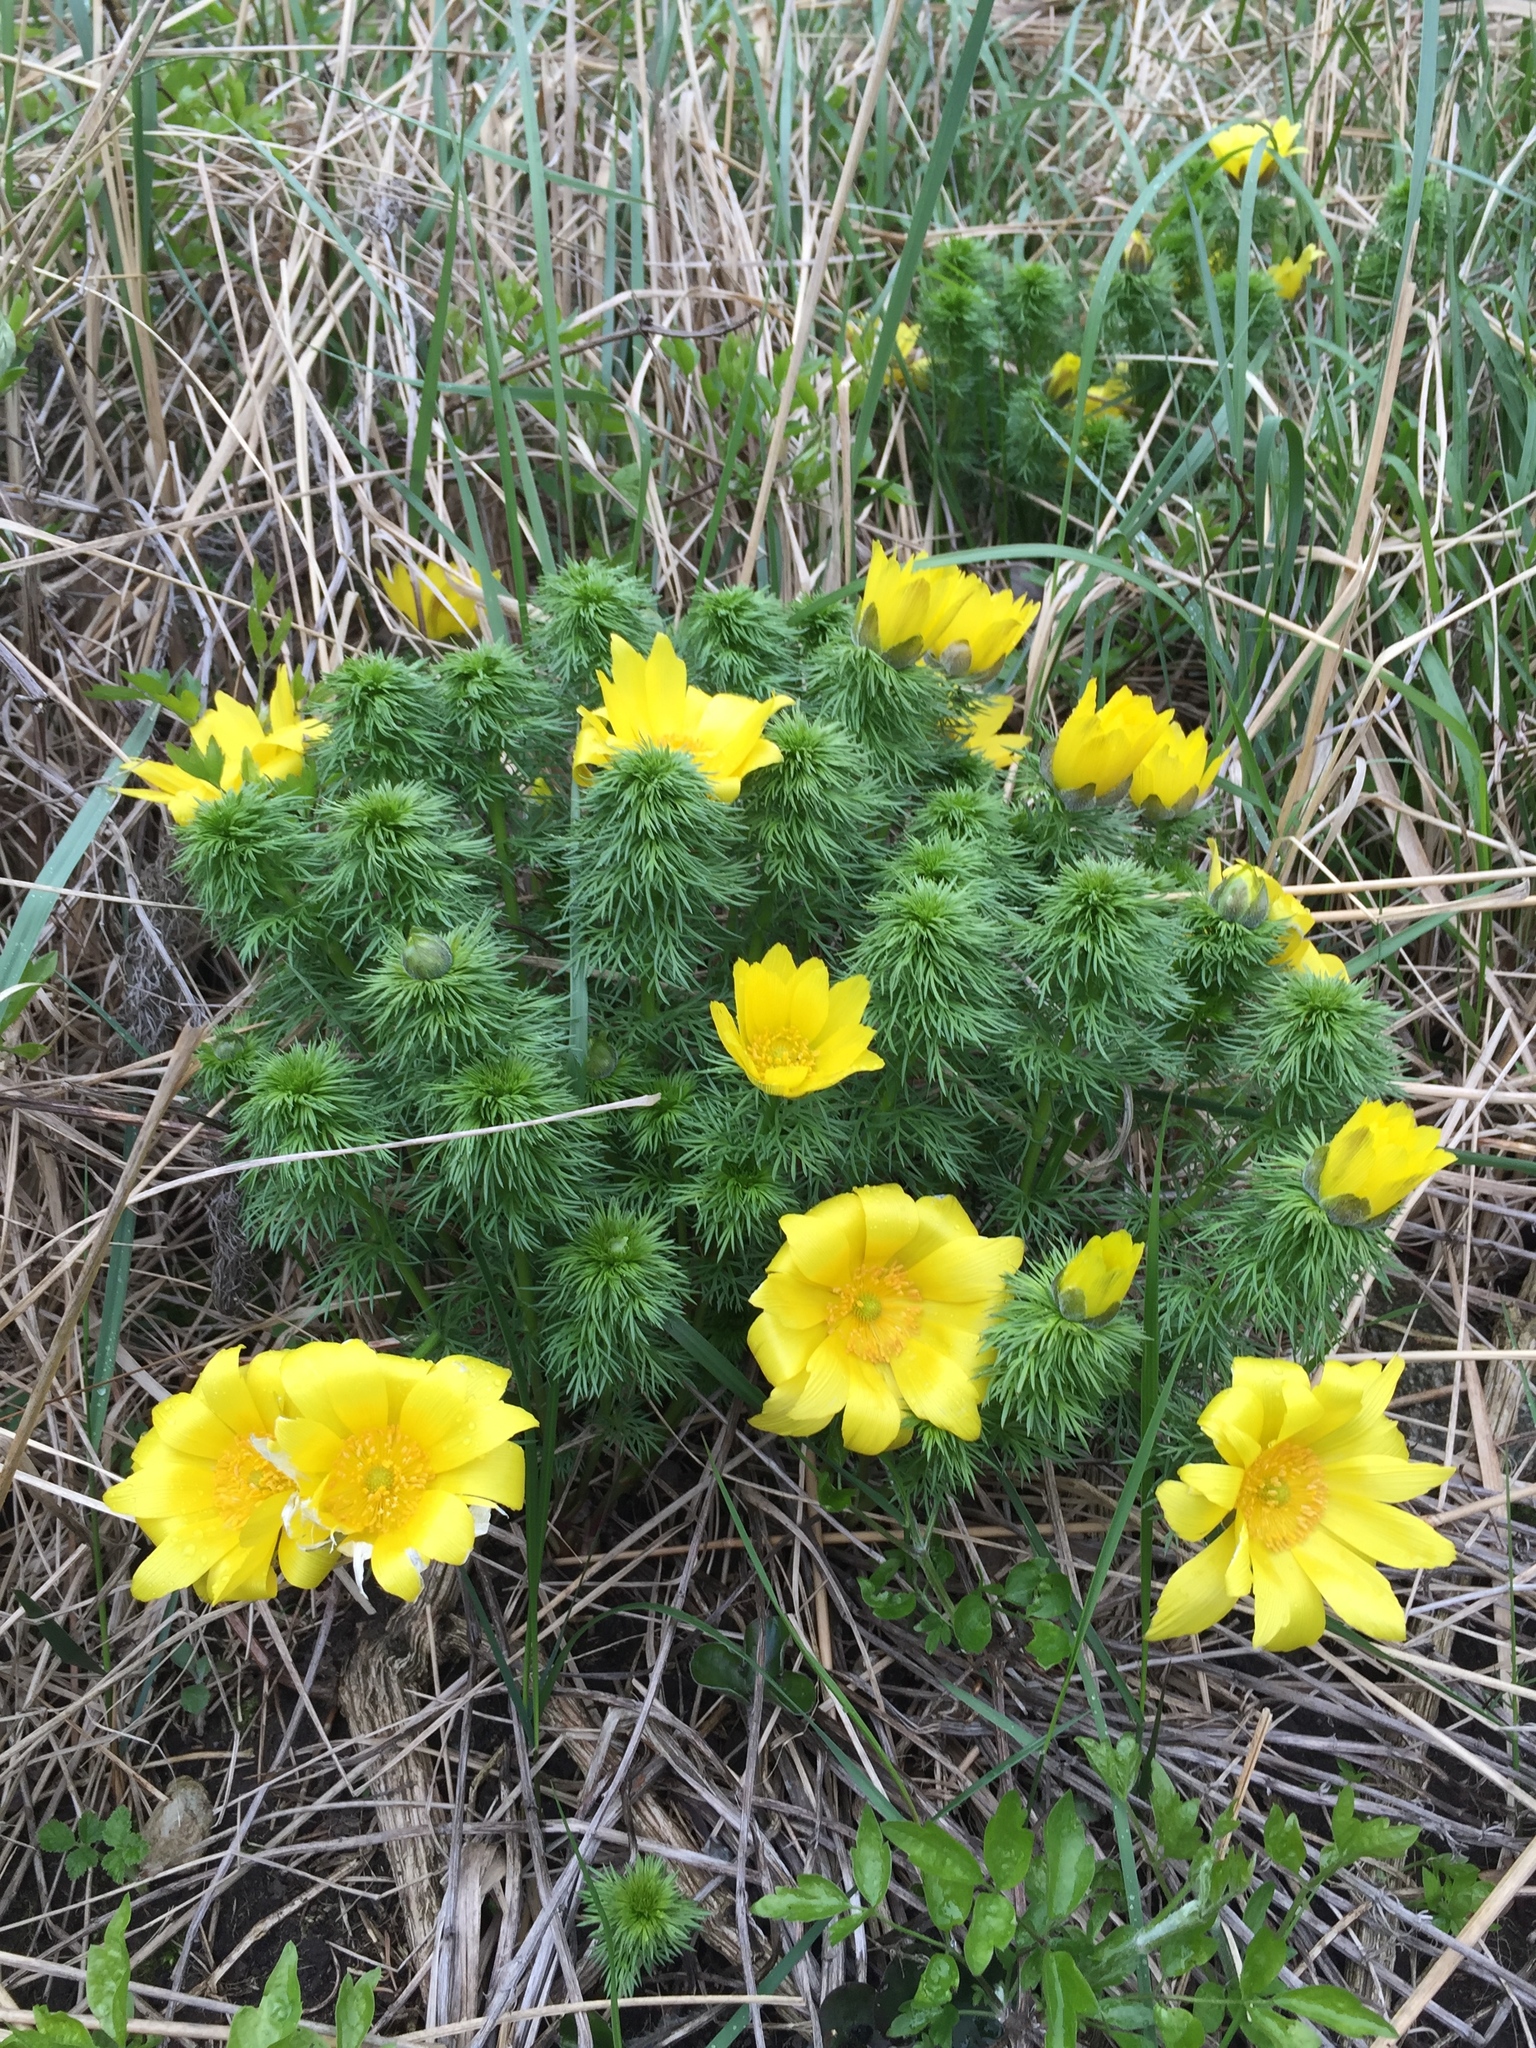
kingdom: Plantae
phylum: Tracheophyta
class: Magnoliopsida
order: Ranunculales
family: Ranunculaceae
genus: Adonis
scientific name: Adonis vernalis
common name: Yellow pheasants-eye
